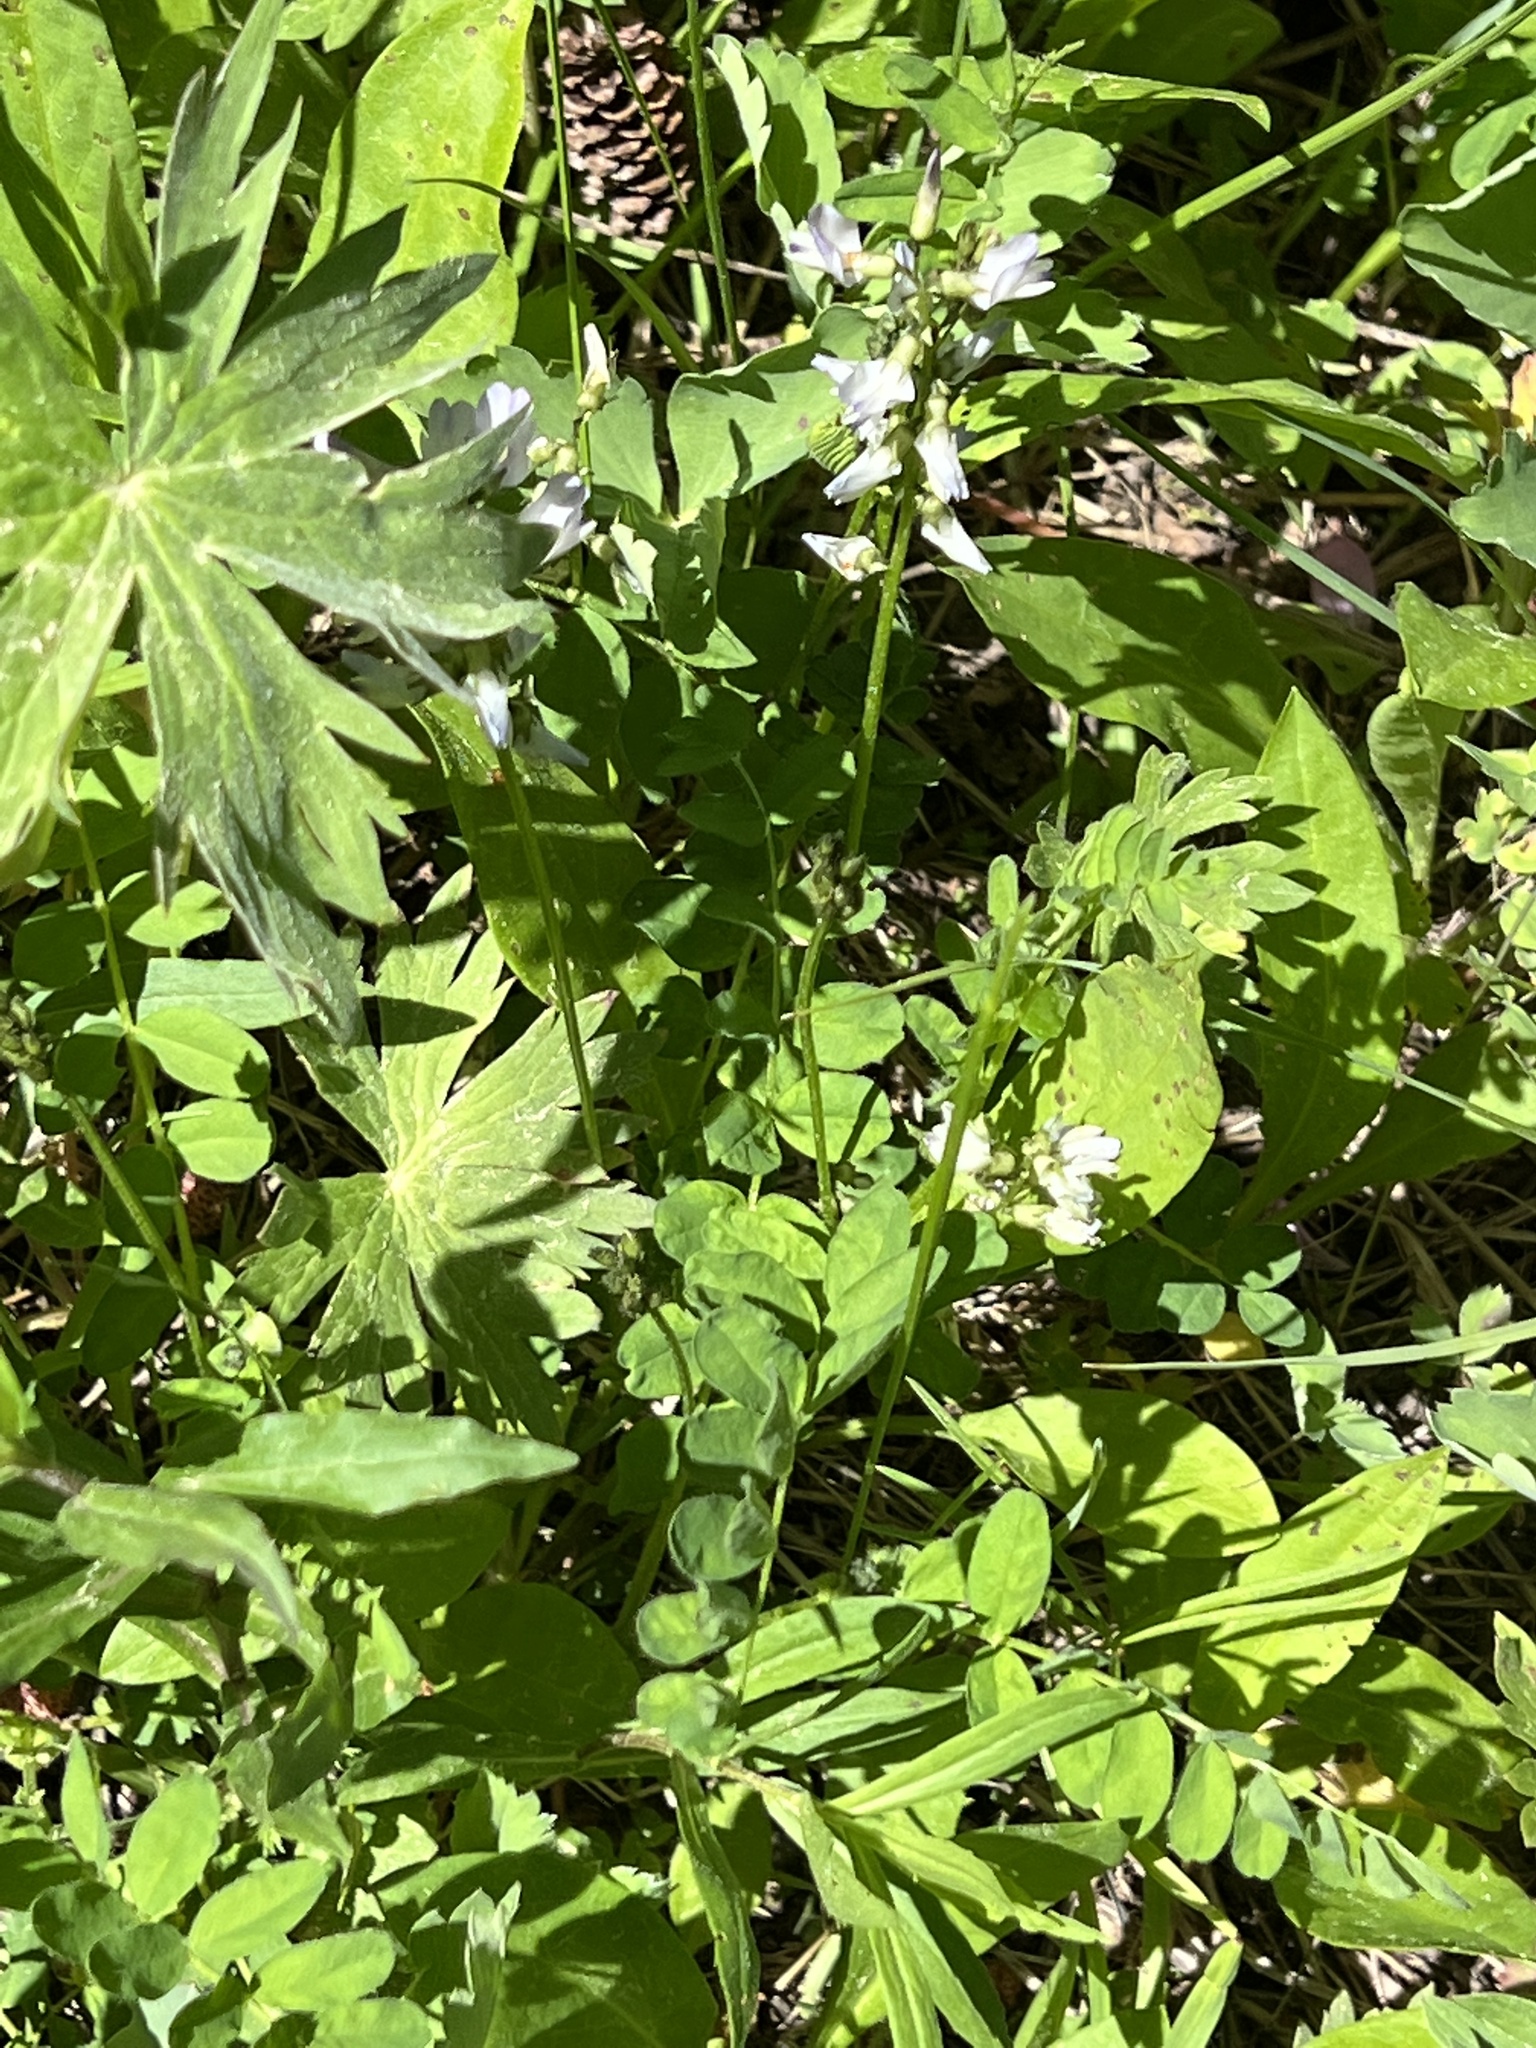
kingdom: Plantae
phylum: Tracheophyta
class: Magnoliopsida
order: Fabales
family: Fabaceae
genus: Astragalus
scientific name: Astragalus alpinus
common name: Alpine milk-vetch
